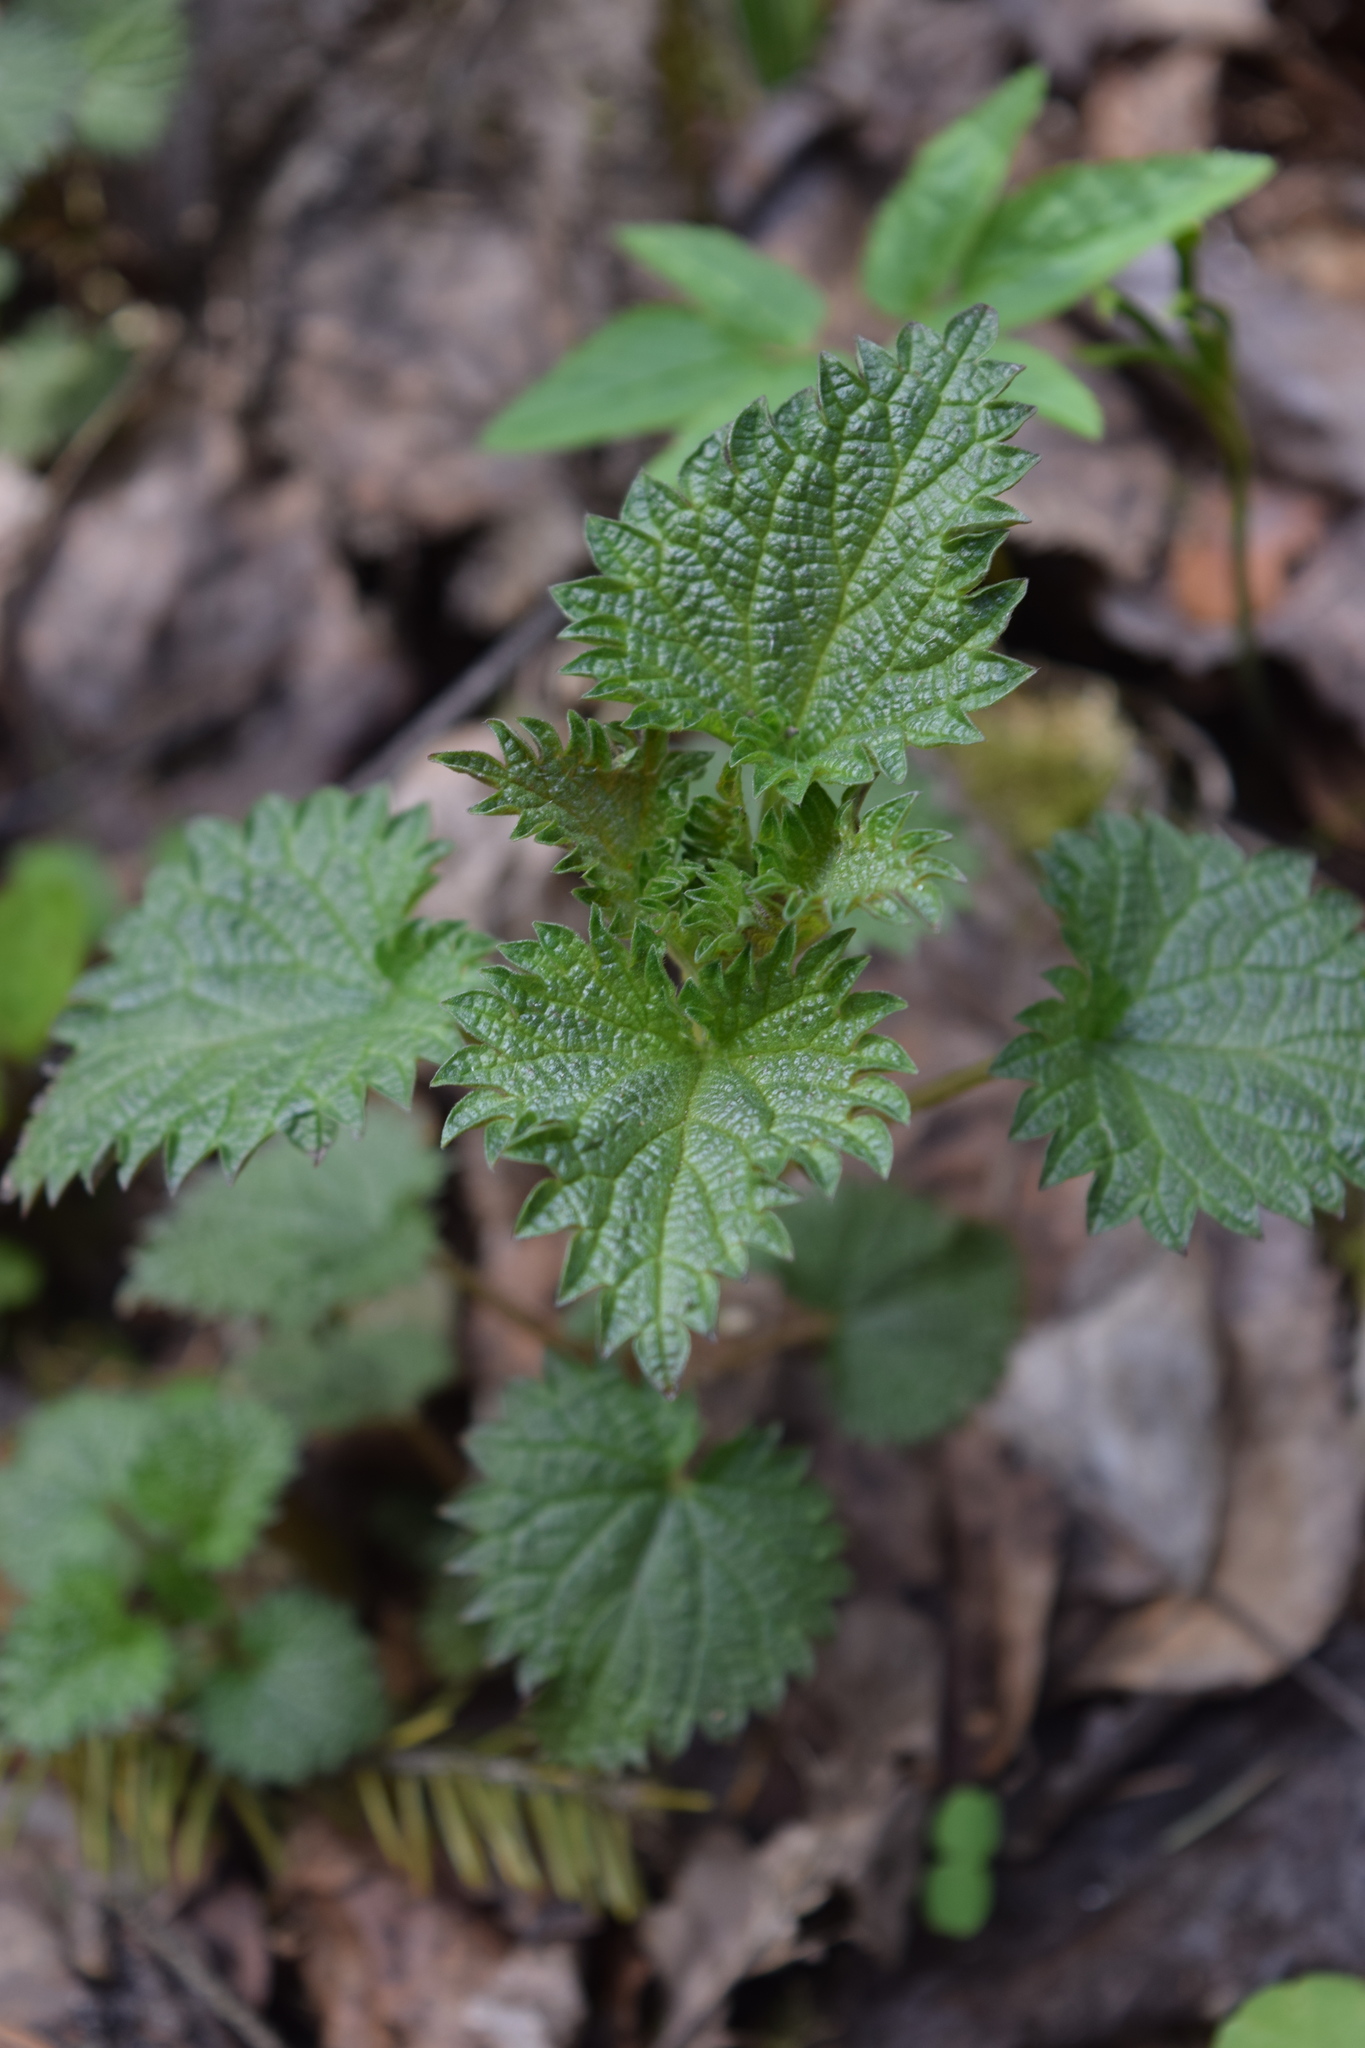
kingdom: Plantae
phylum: Tracheophyta
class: Magnoliopsida
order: Rosales
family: Urticaceae
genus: Urtica
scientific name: Urtica dioica
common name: Common nettle
